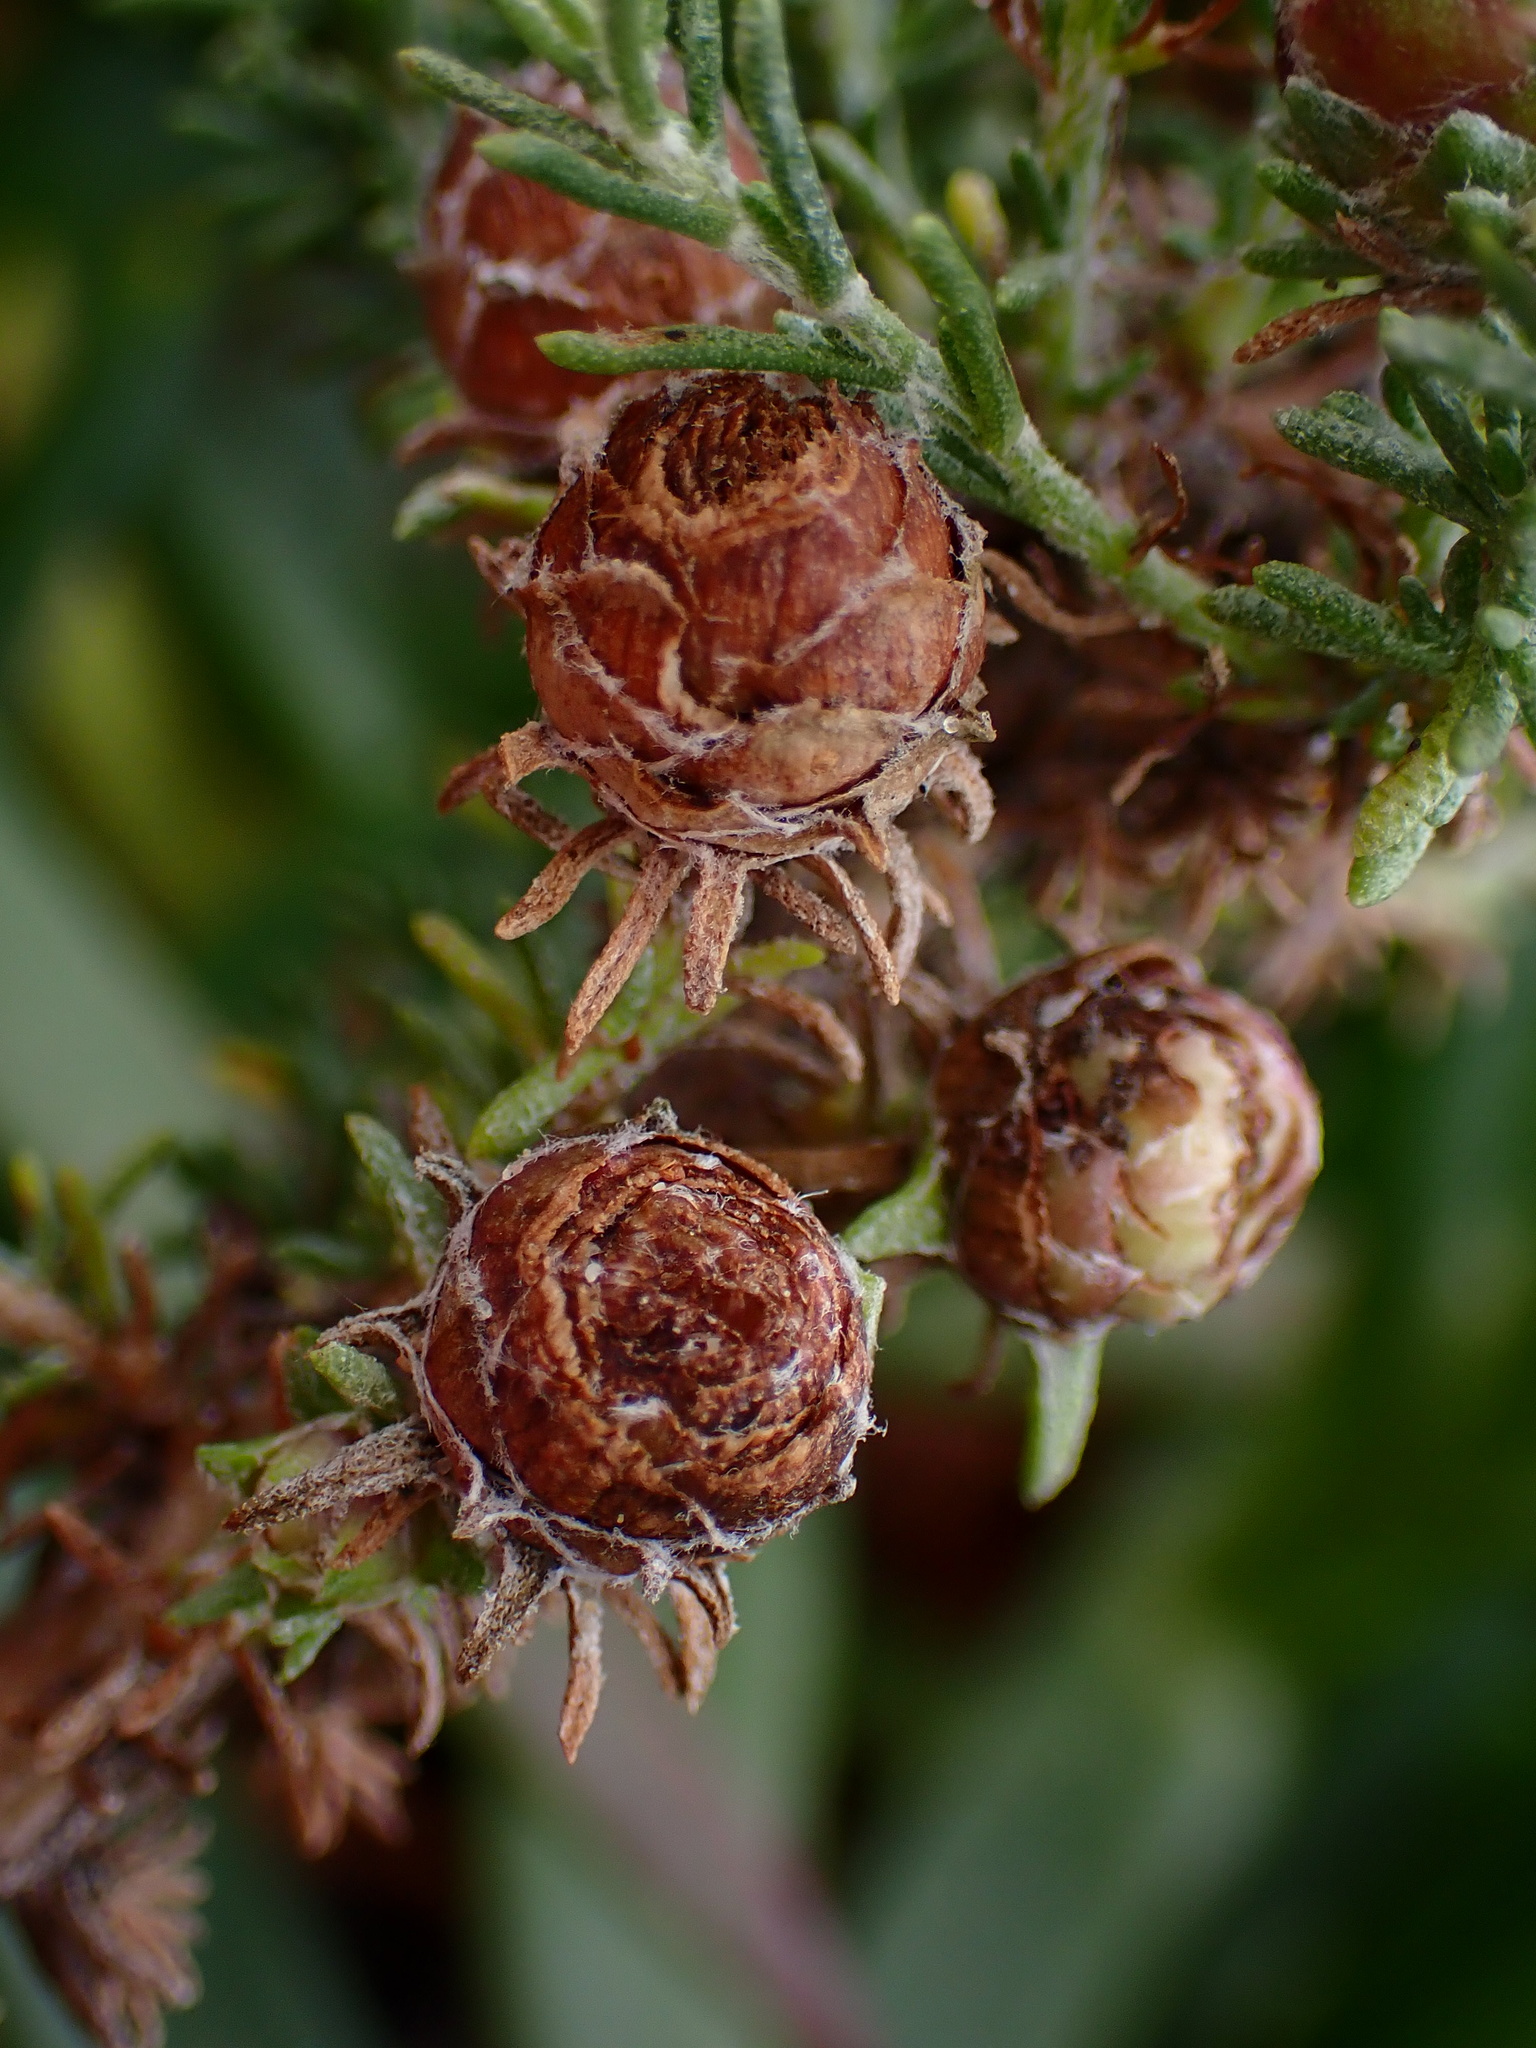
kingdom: Animalia
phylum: Arthropoda
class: Insecta
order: Diptera
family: Cecidomyiidae
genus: Prodiplosis
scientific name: Prodiplosis falcata
